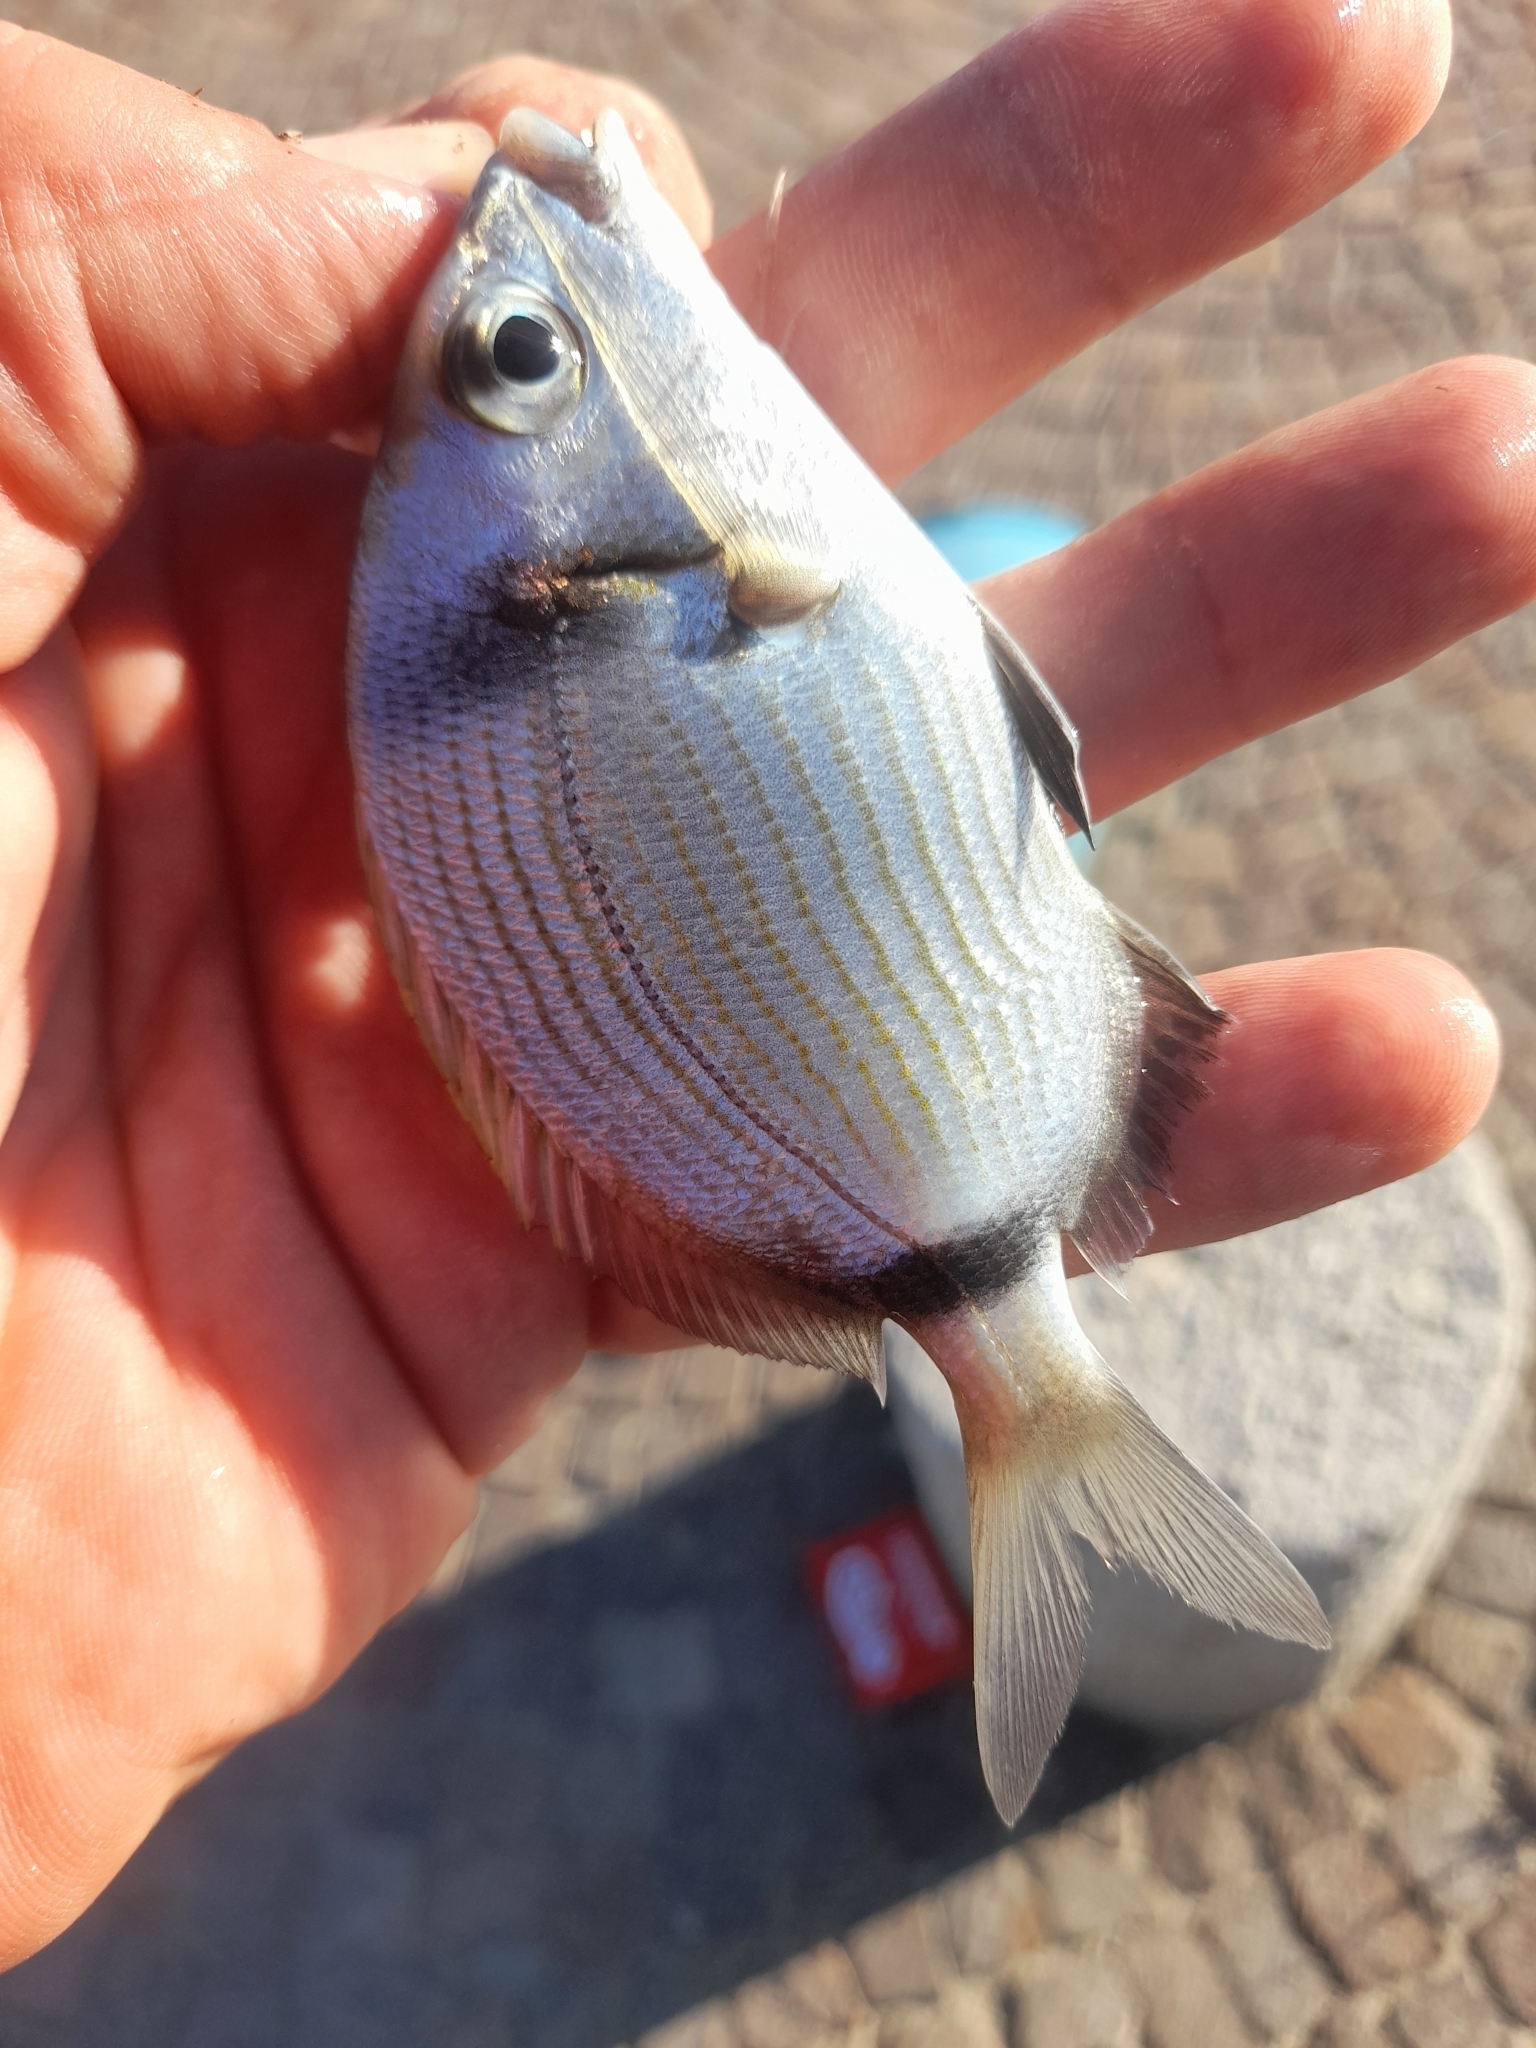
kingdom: Animalia
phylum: Chordata
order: Perciformes
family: Sparidae
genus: Diplodus
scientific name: Diplodus vulgaris
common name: Common two-banded seabream
